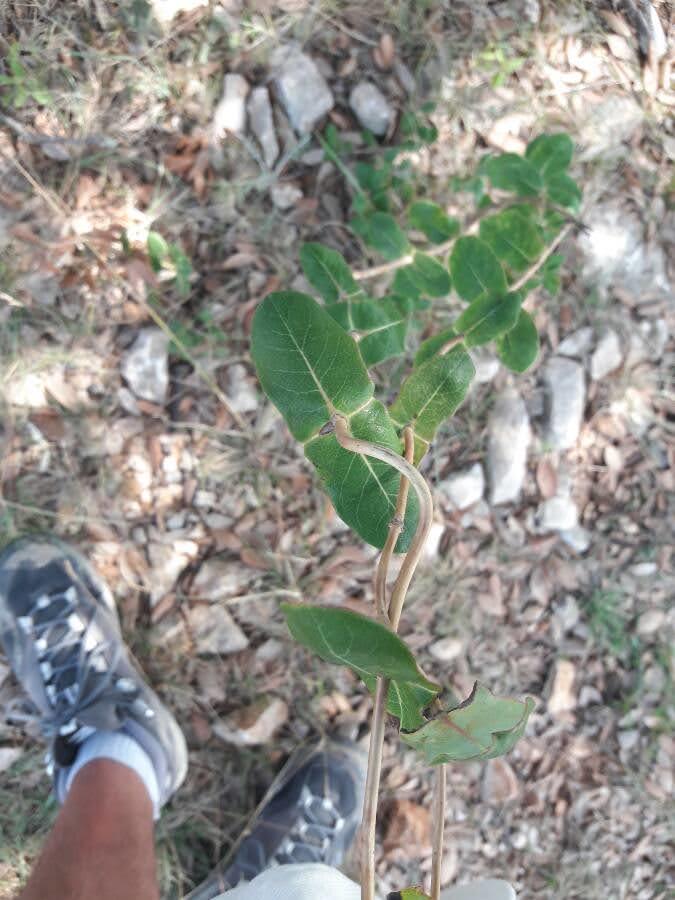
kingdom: Plantae
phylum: Tracheophyta
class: Magnoliopsida
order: Dipsacales
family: Caprifoliaceae
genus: Lonicera
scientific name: Lonicera implexa
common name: Minorca honeysuckle
